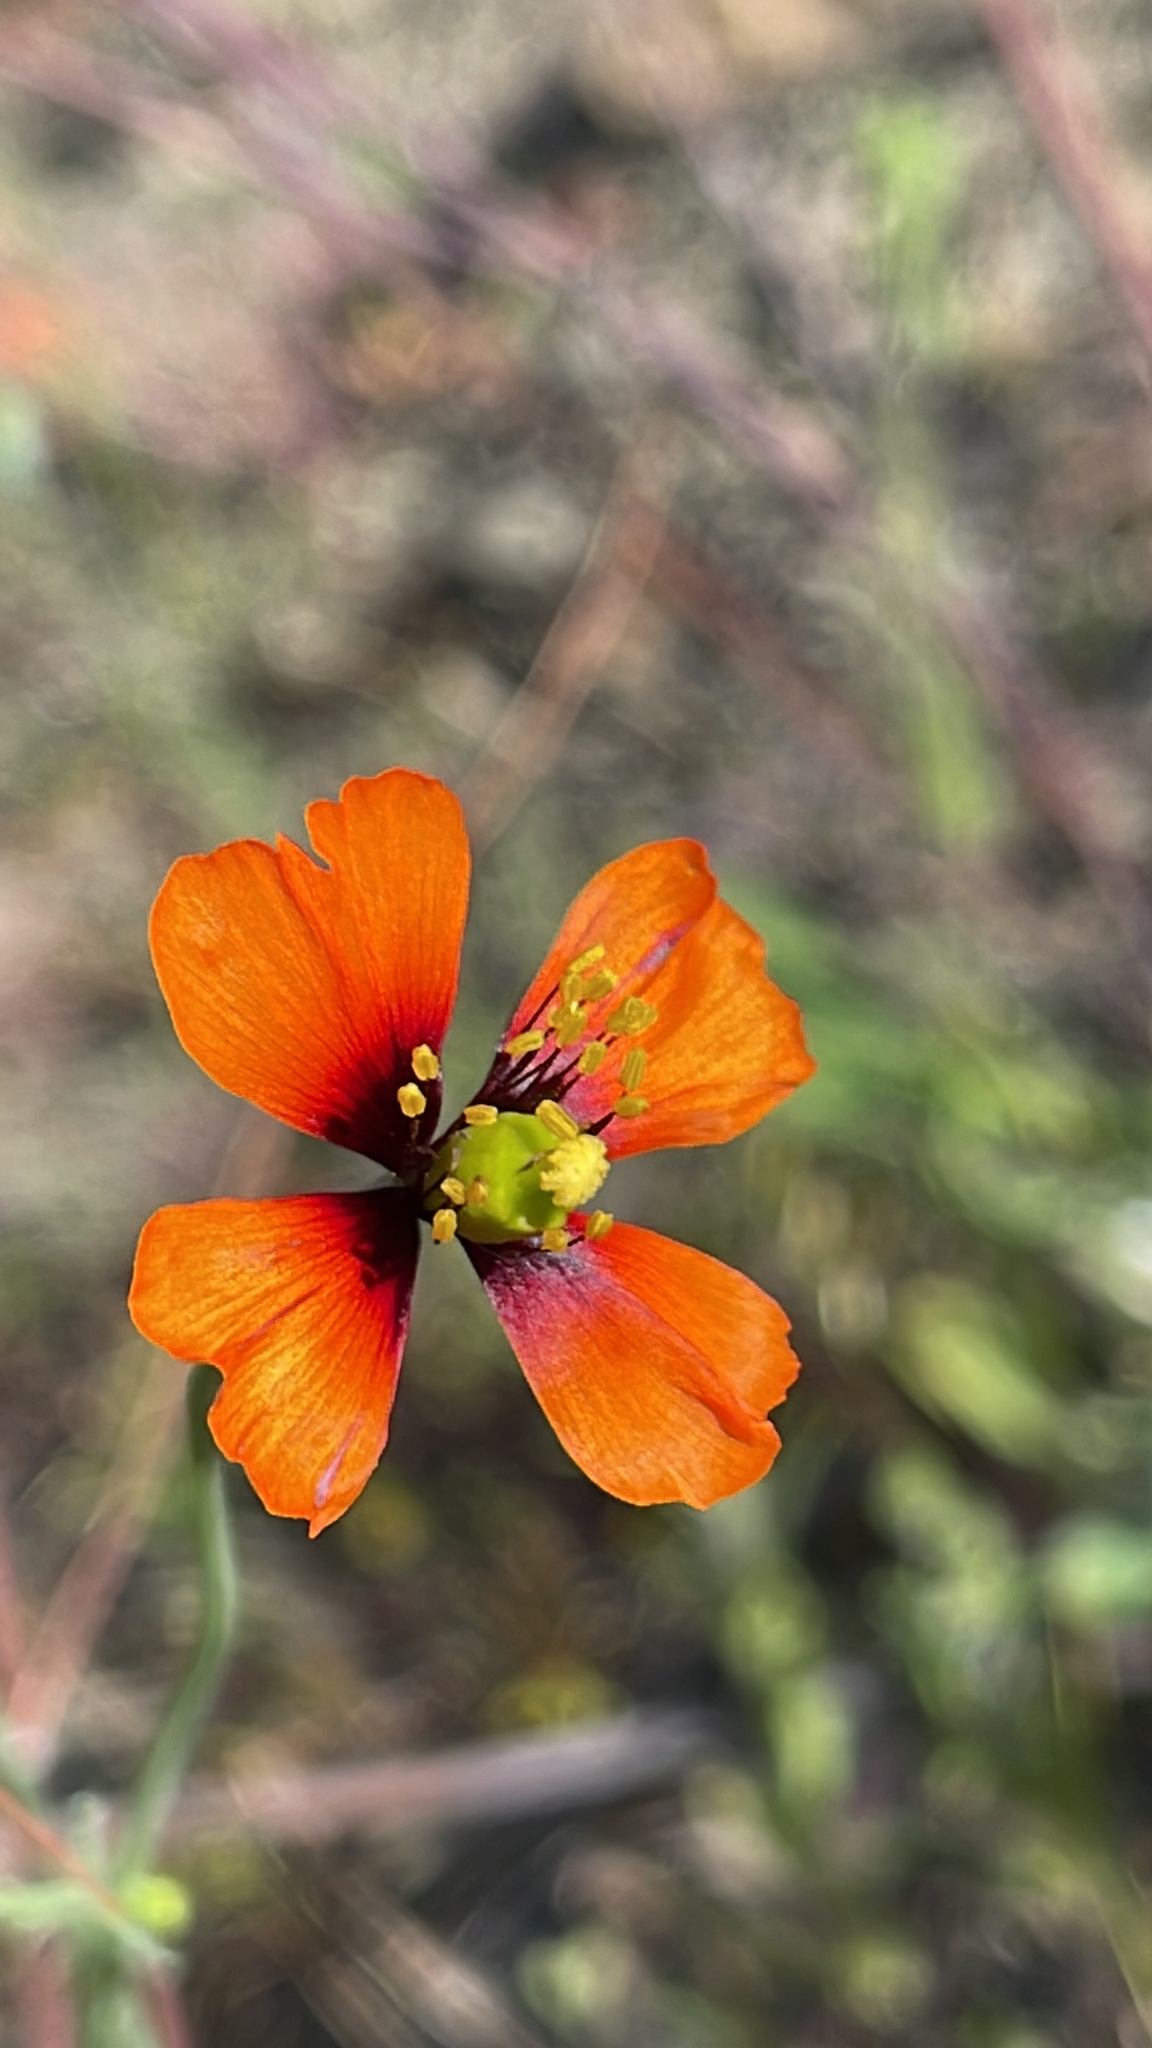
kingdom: Plantae
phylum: Tracheophyta
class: Magnoliopsida
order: Ranunculales
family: Papaveraceae
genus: Stylomecon
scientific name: Stylomecon heterophylla
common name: Flaming-poppy
